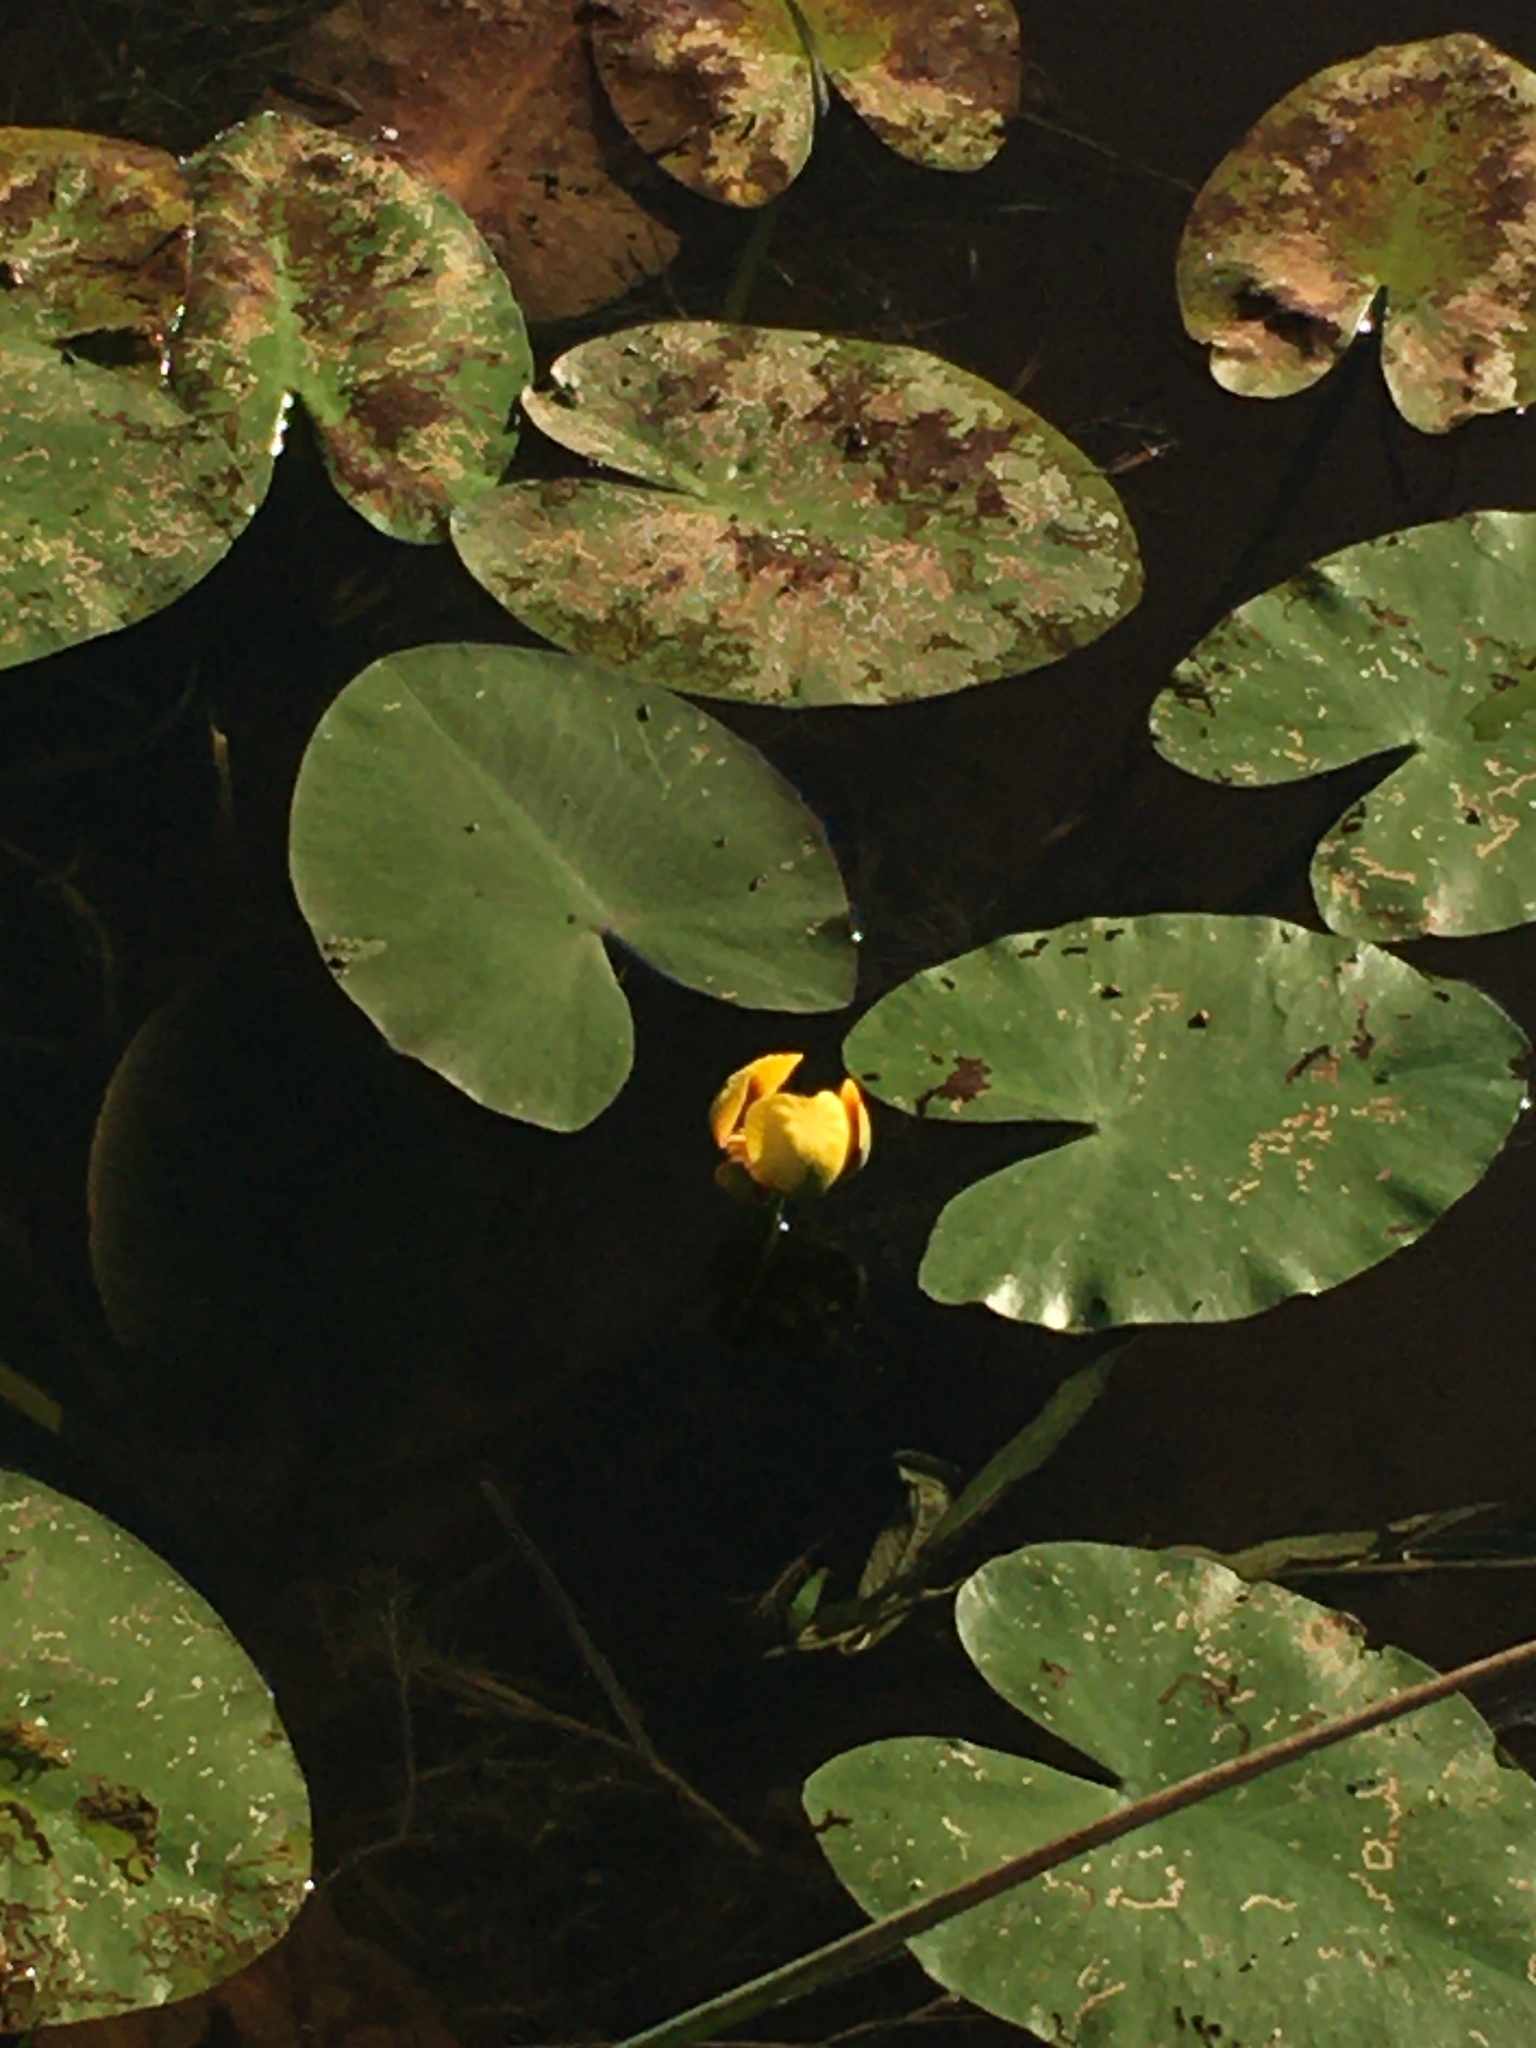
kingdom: Plantae
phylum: Tracheophyta
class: Magnoliopsida
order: Nymphaeales
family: Nymphaeaceae
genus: Nuphar
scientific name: Nuphar variegata
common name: Beaver-root
